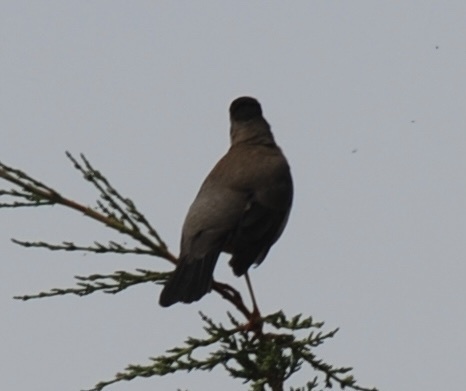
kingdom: Animalia
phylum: Chordata
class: Aves
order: Passeriformes
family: Turdidae
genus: Turdus
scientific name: Turdus falcklandii
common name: Austral thrush
